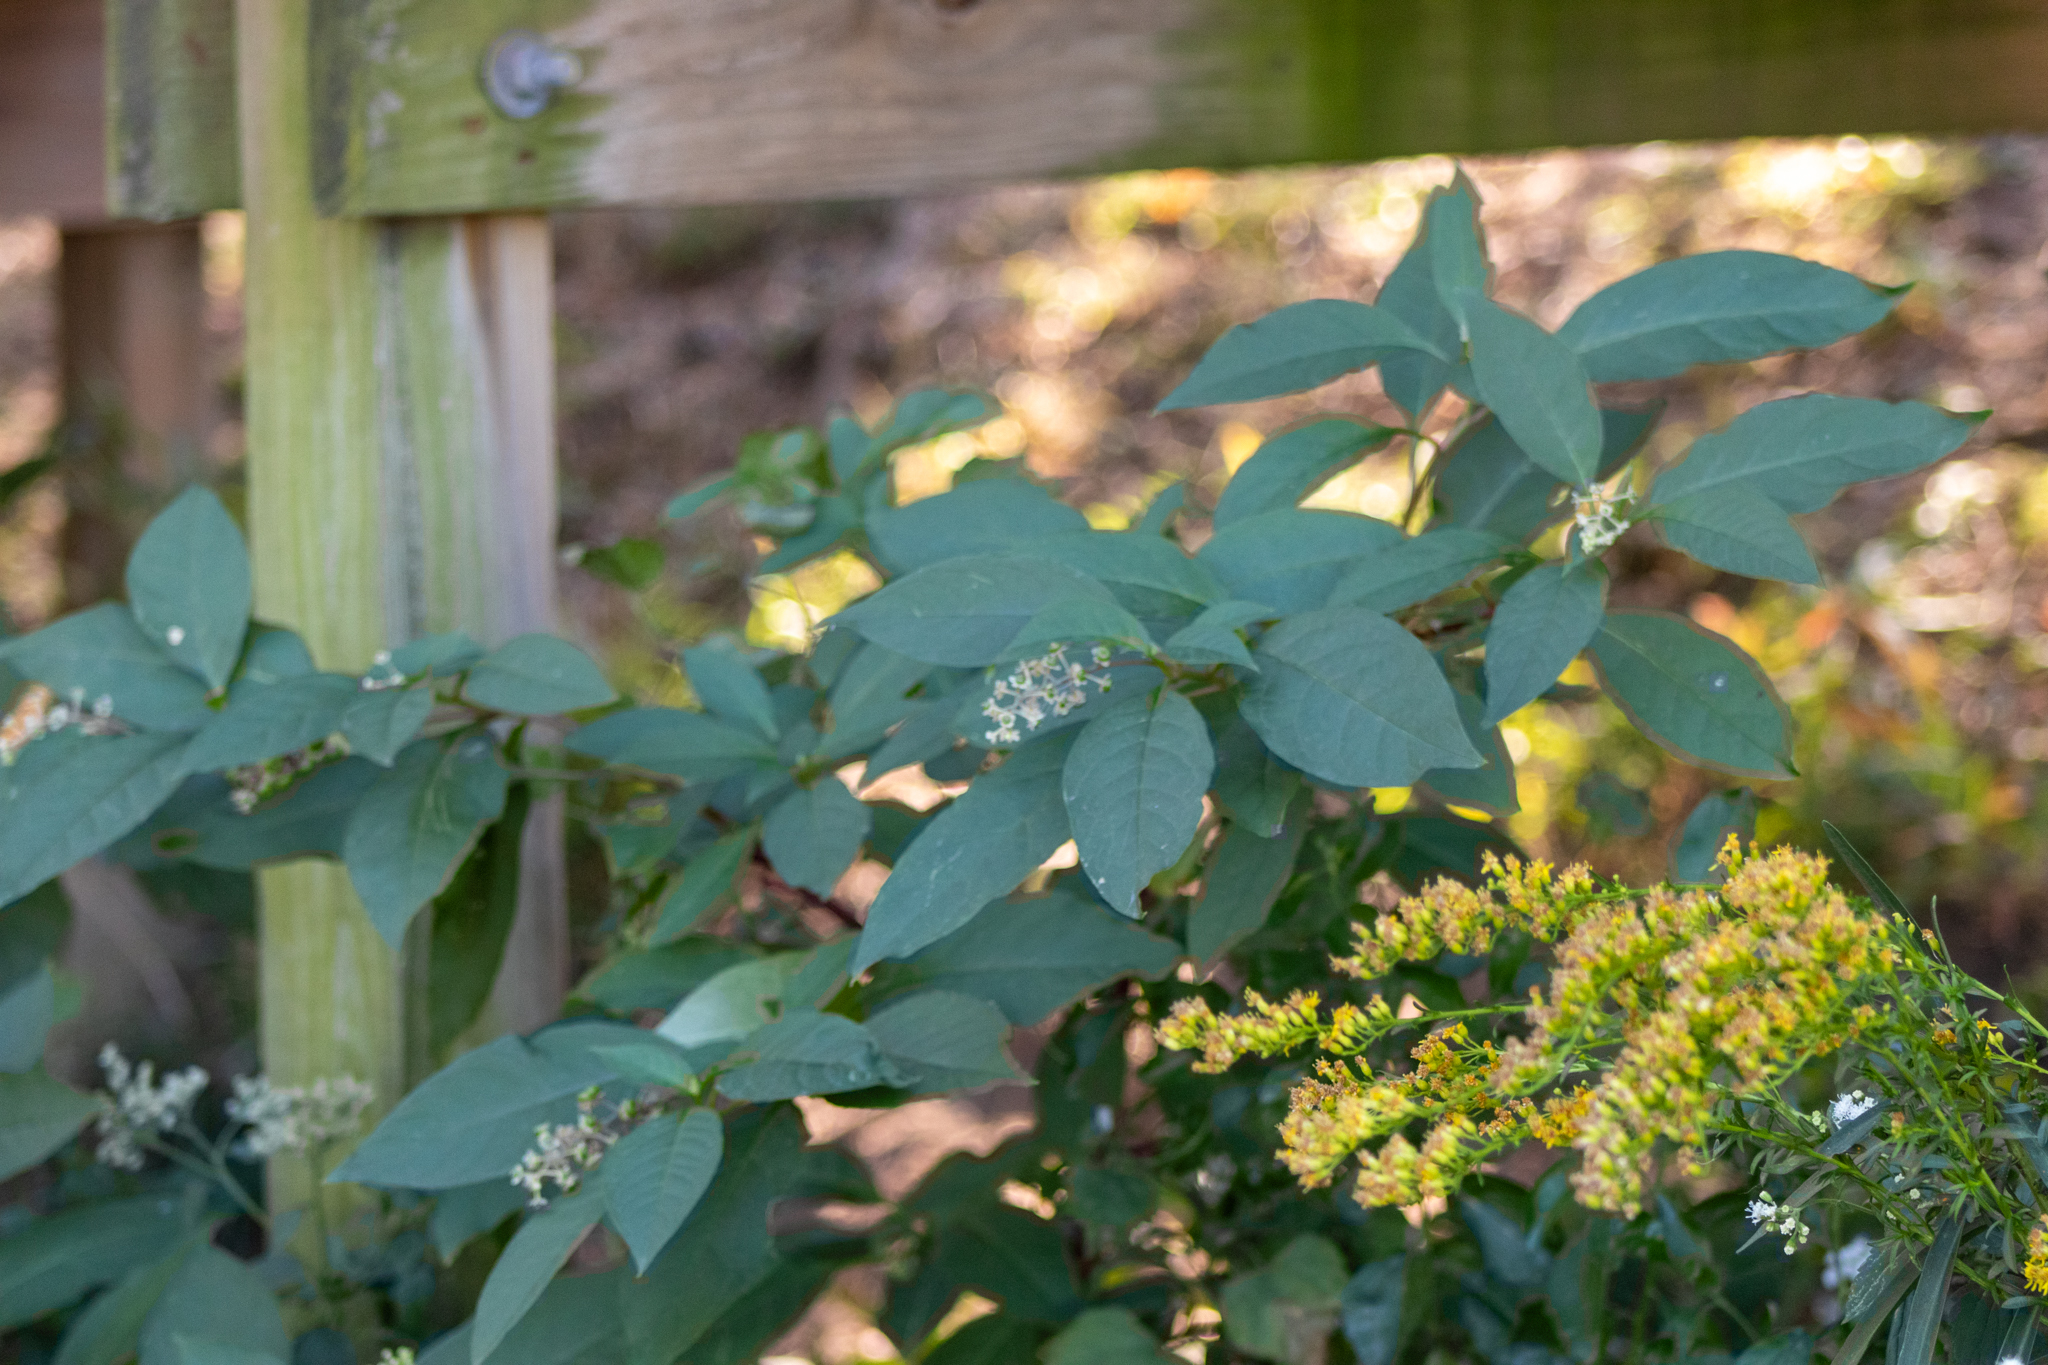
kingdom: Plantae
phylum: Tracheophyta
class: Magnoliopsida
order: Caryophyllales
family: Phytolaccaceae
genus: Phytolacca
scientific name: Phytolacca americana
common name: American pokeweed
